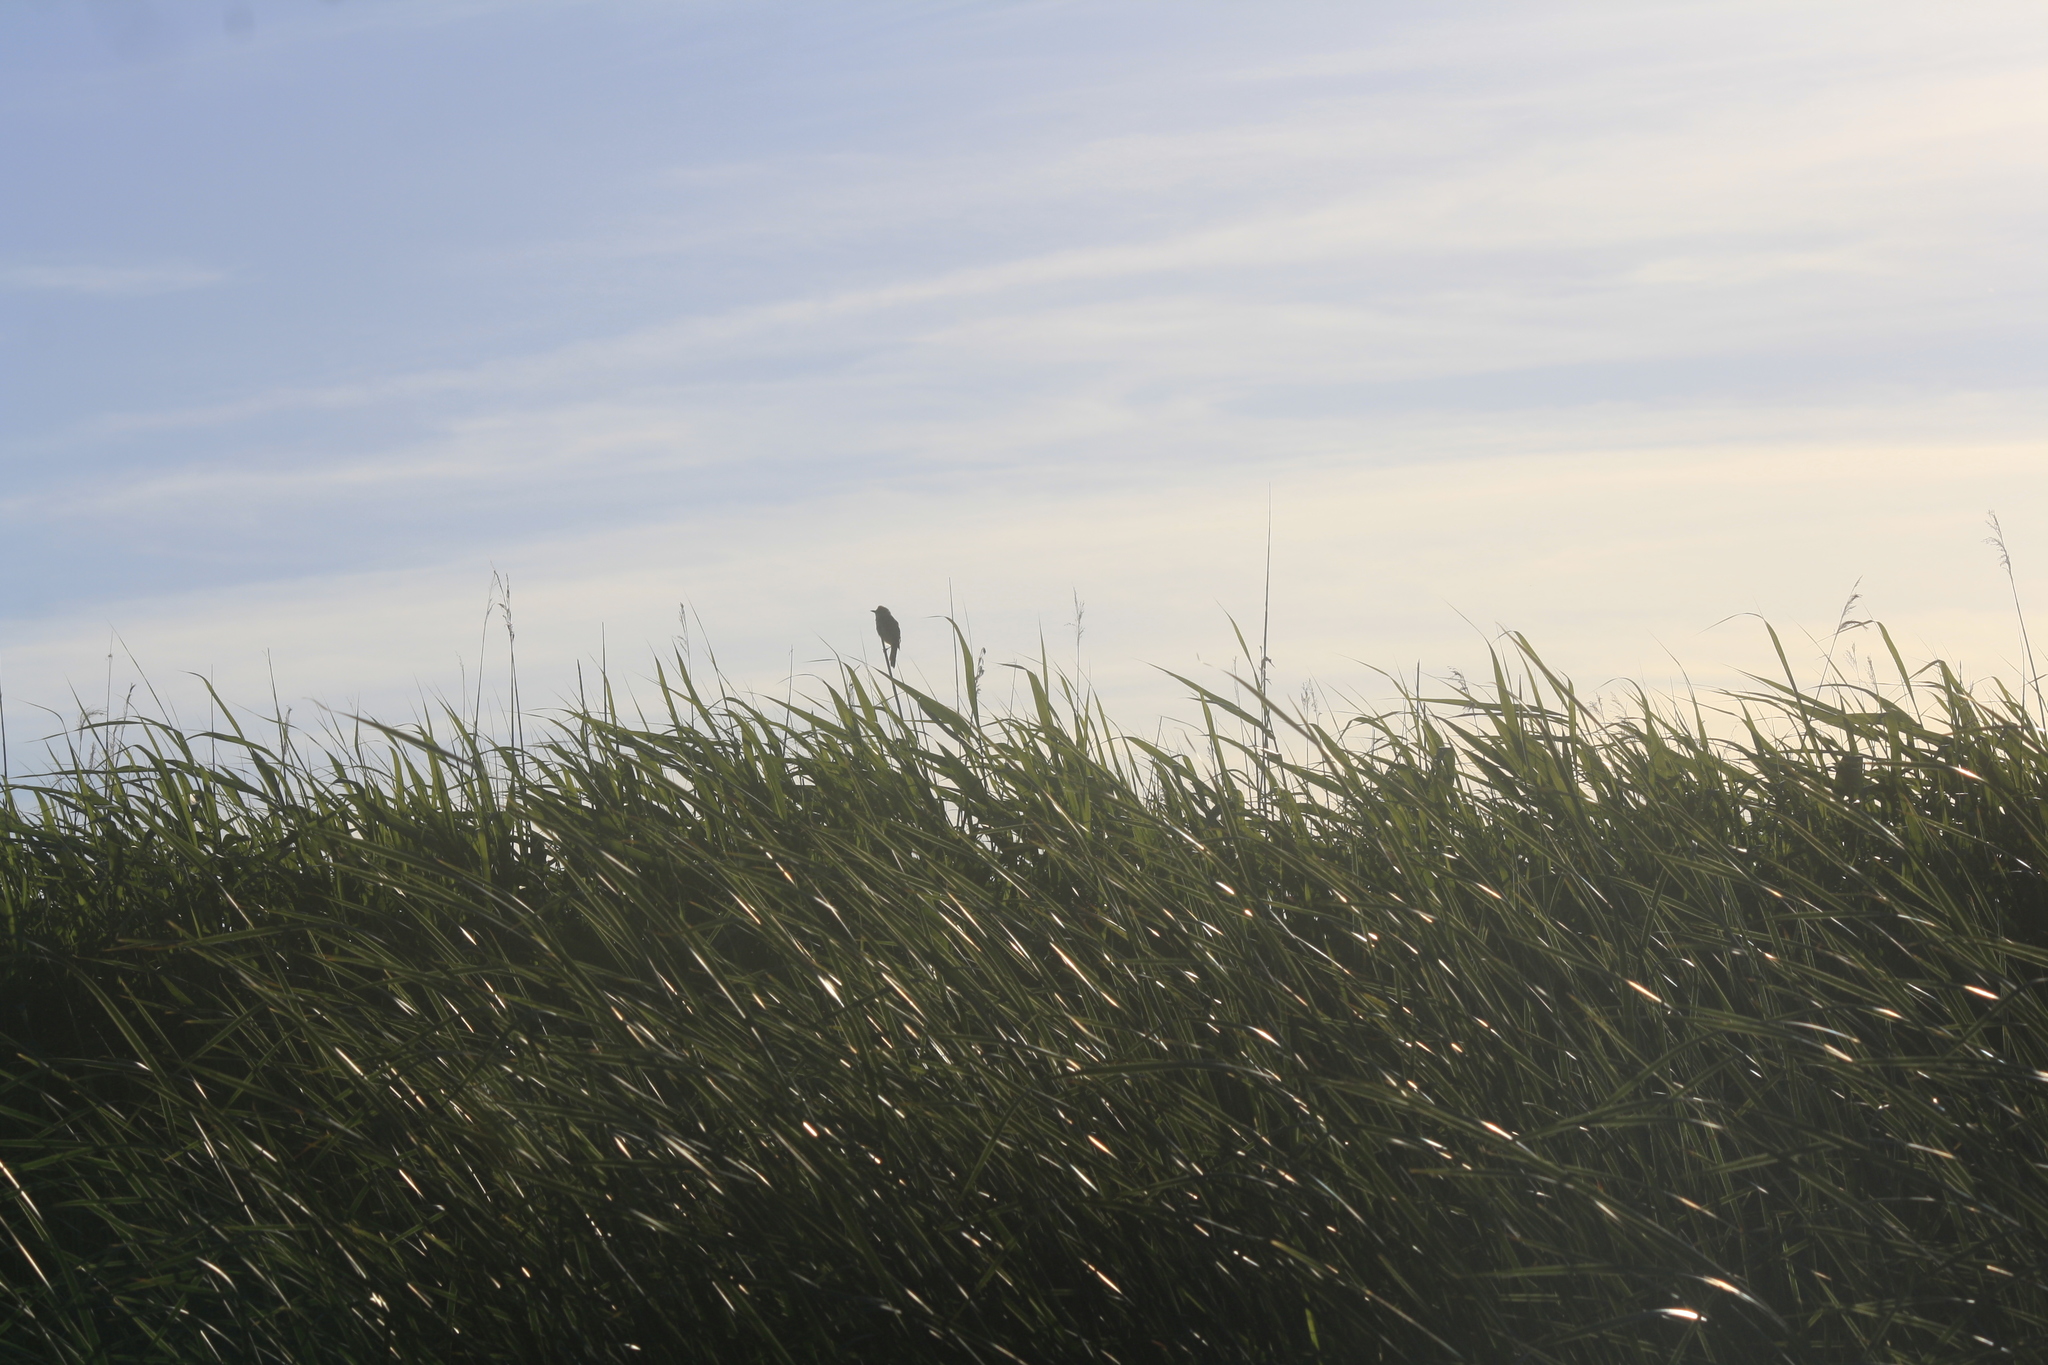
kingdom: Plantae
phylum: Tracheophyta
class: Liliopsida
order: Poales
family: Poaceae
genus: Phragmites
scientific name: Phragmites australis
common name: Common reed
